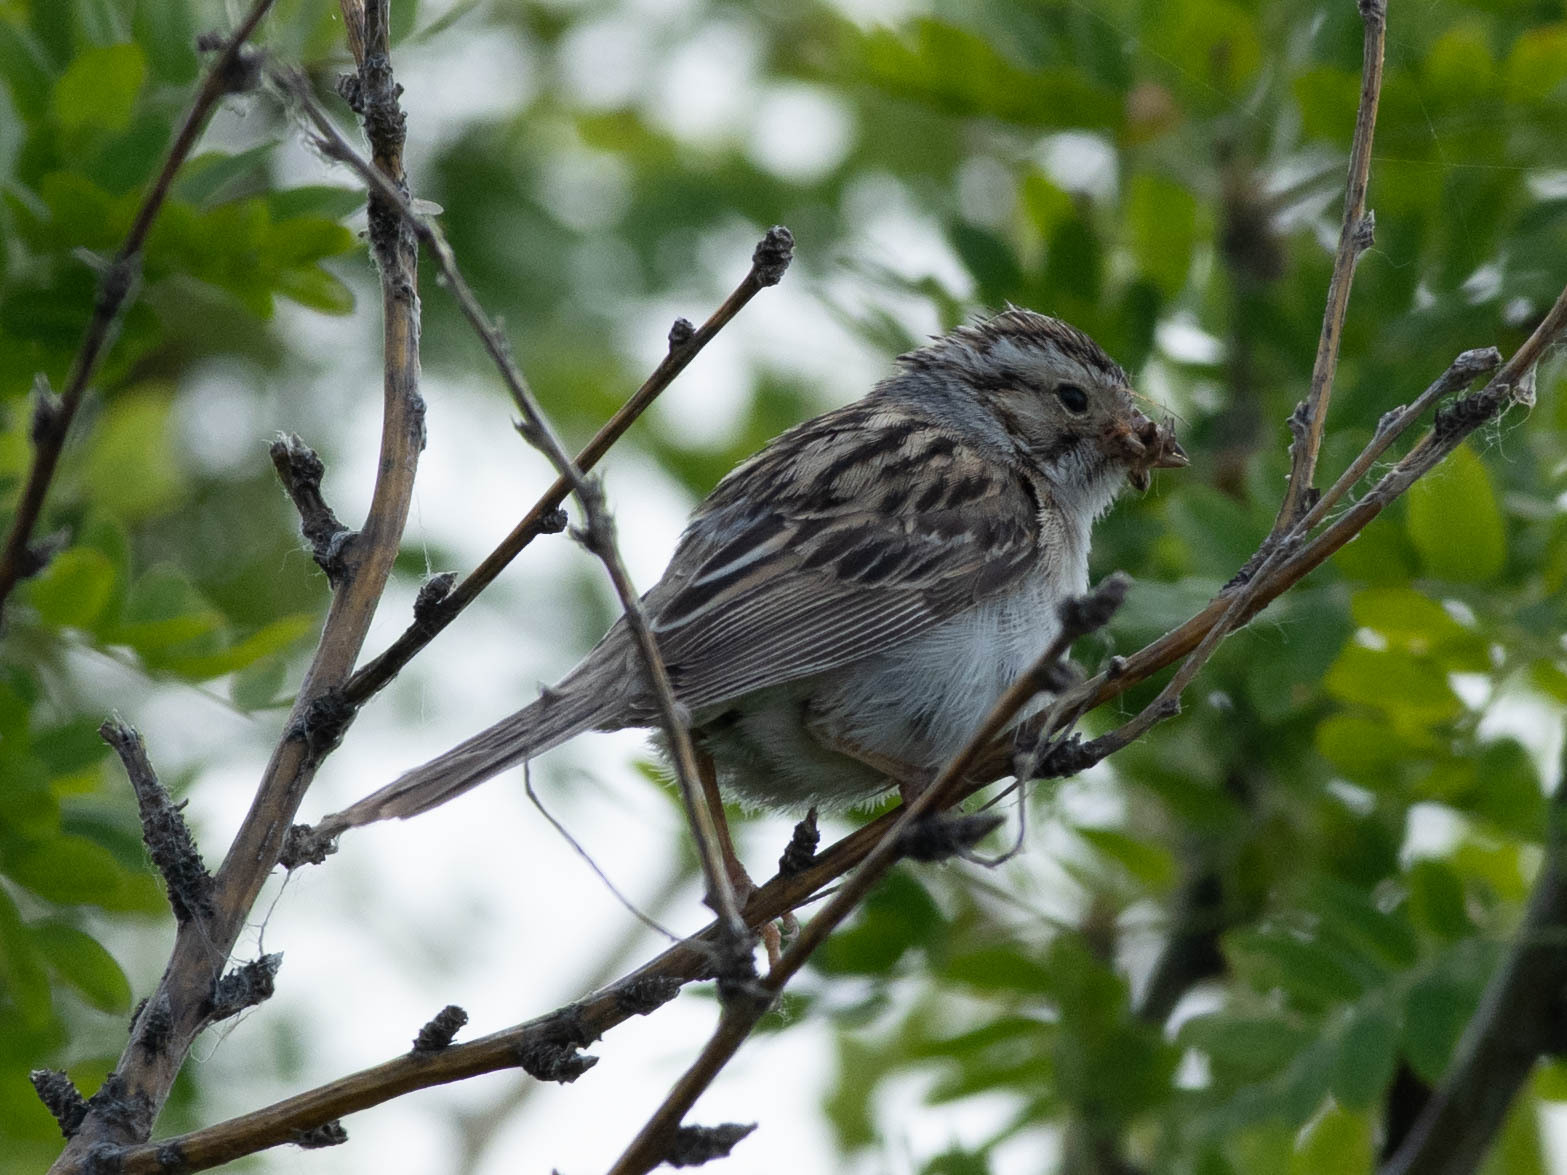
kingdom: Animalia
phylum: Chordata
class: Aves
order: Passeriformes
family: Passerellidae
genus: Spizella
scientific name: Spizella pallida
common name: Clay-colored sparrow
